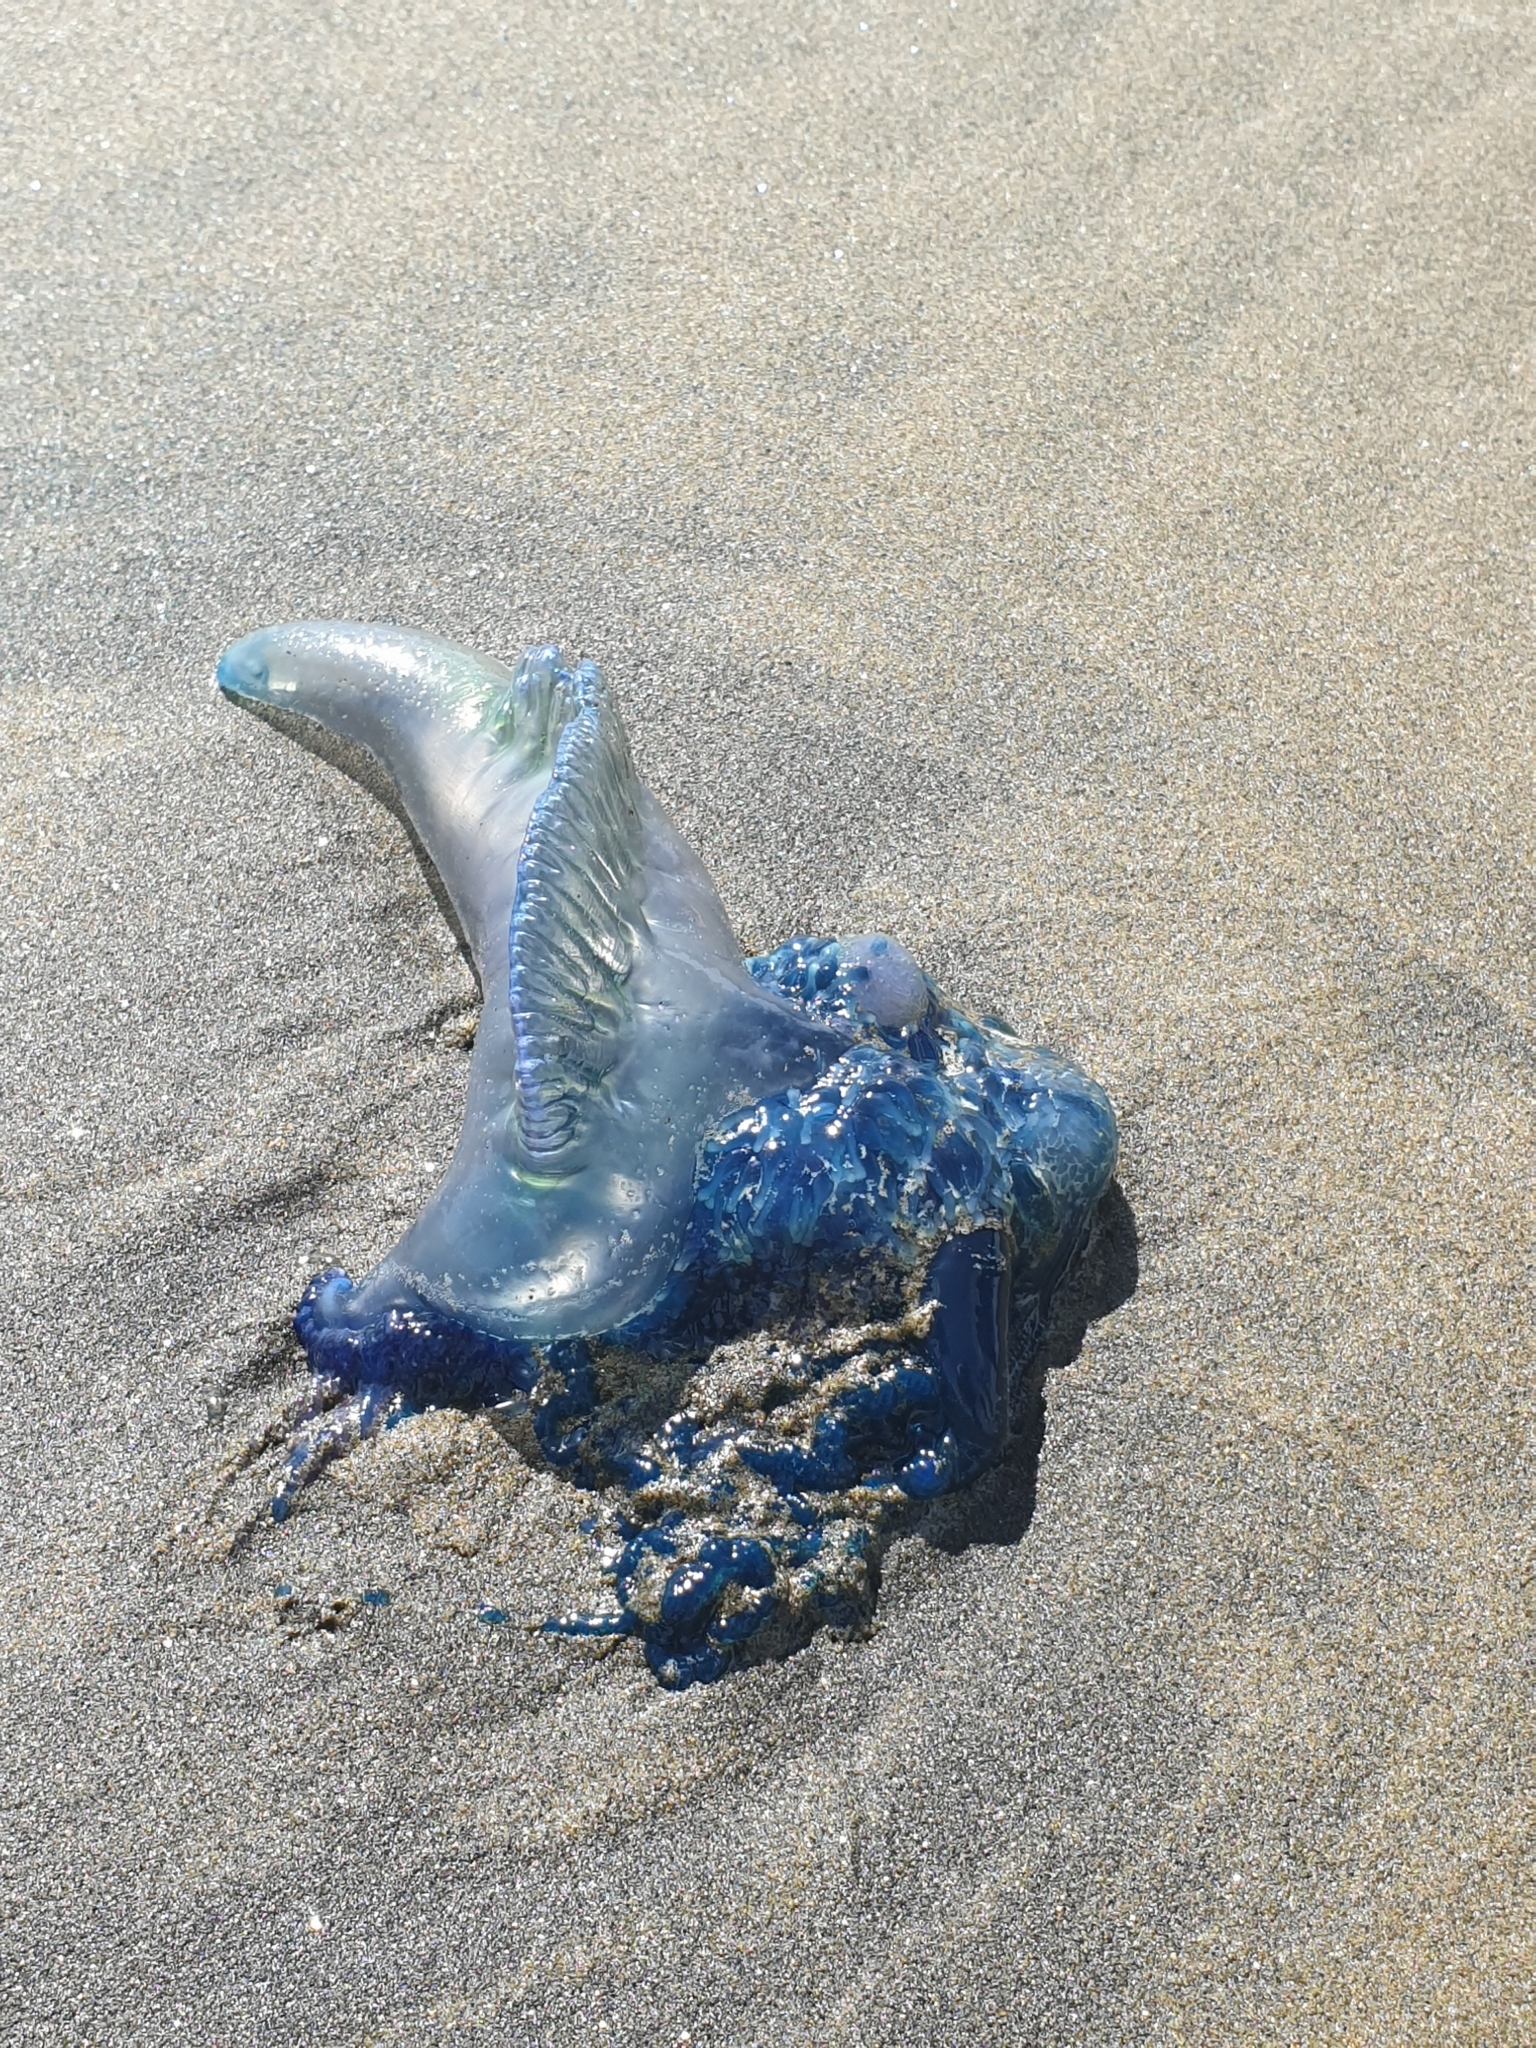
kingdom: Animalia
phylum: Cnidaria
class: Hydrozoa
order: Siphonophorae
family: Physaliidae
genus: Physalia
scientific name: Physalia physalis
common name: Portuguese man-of-war
